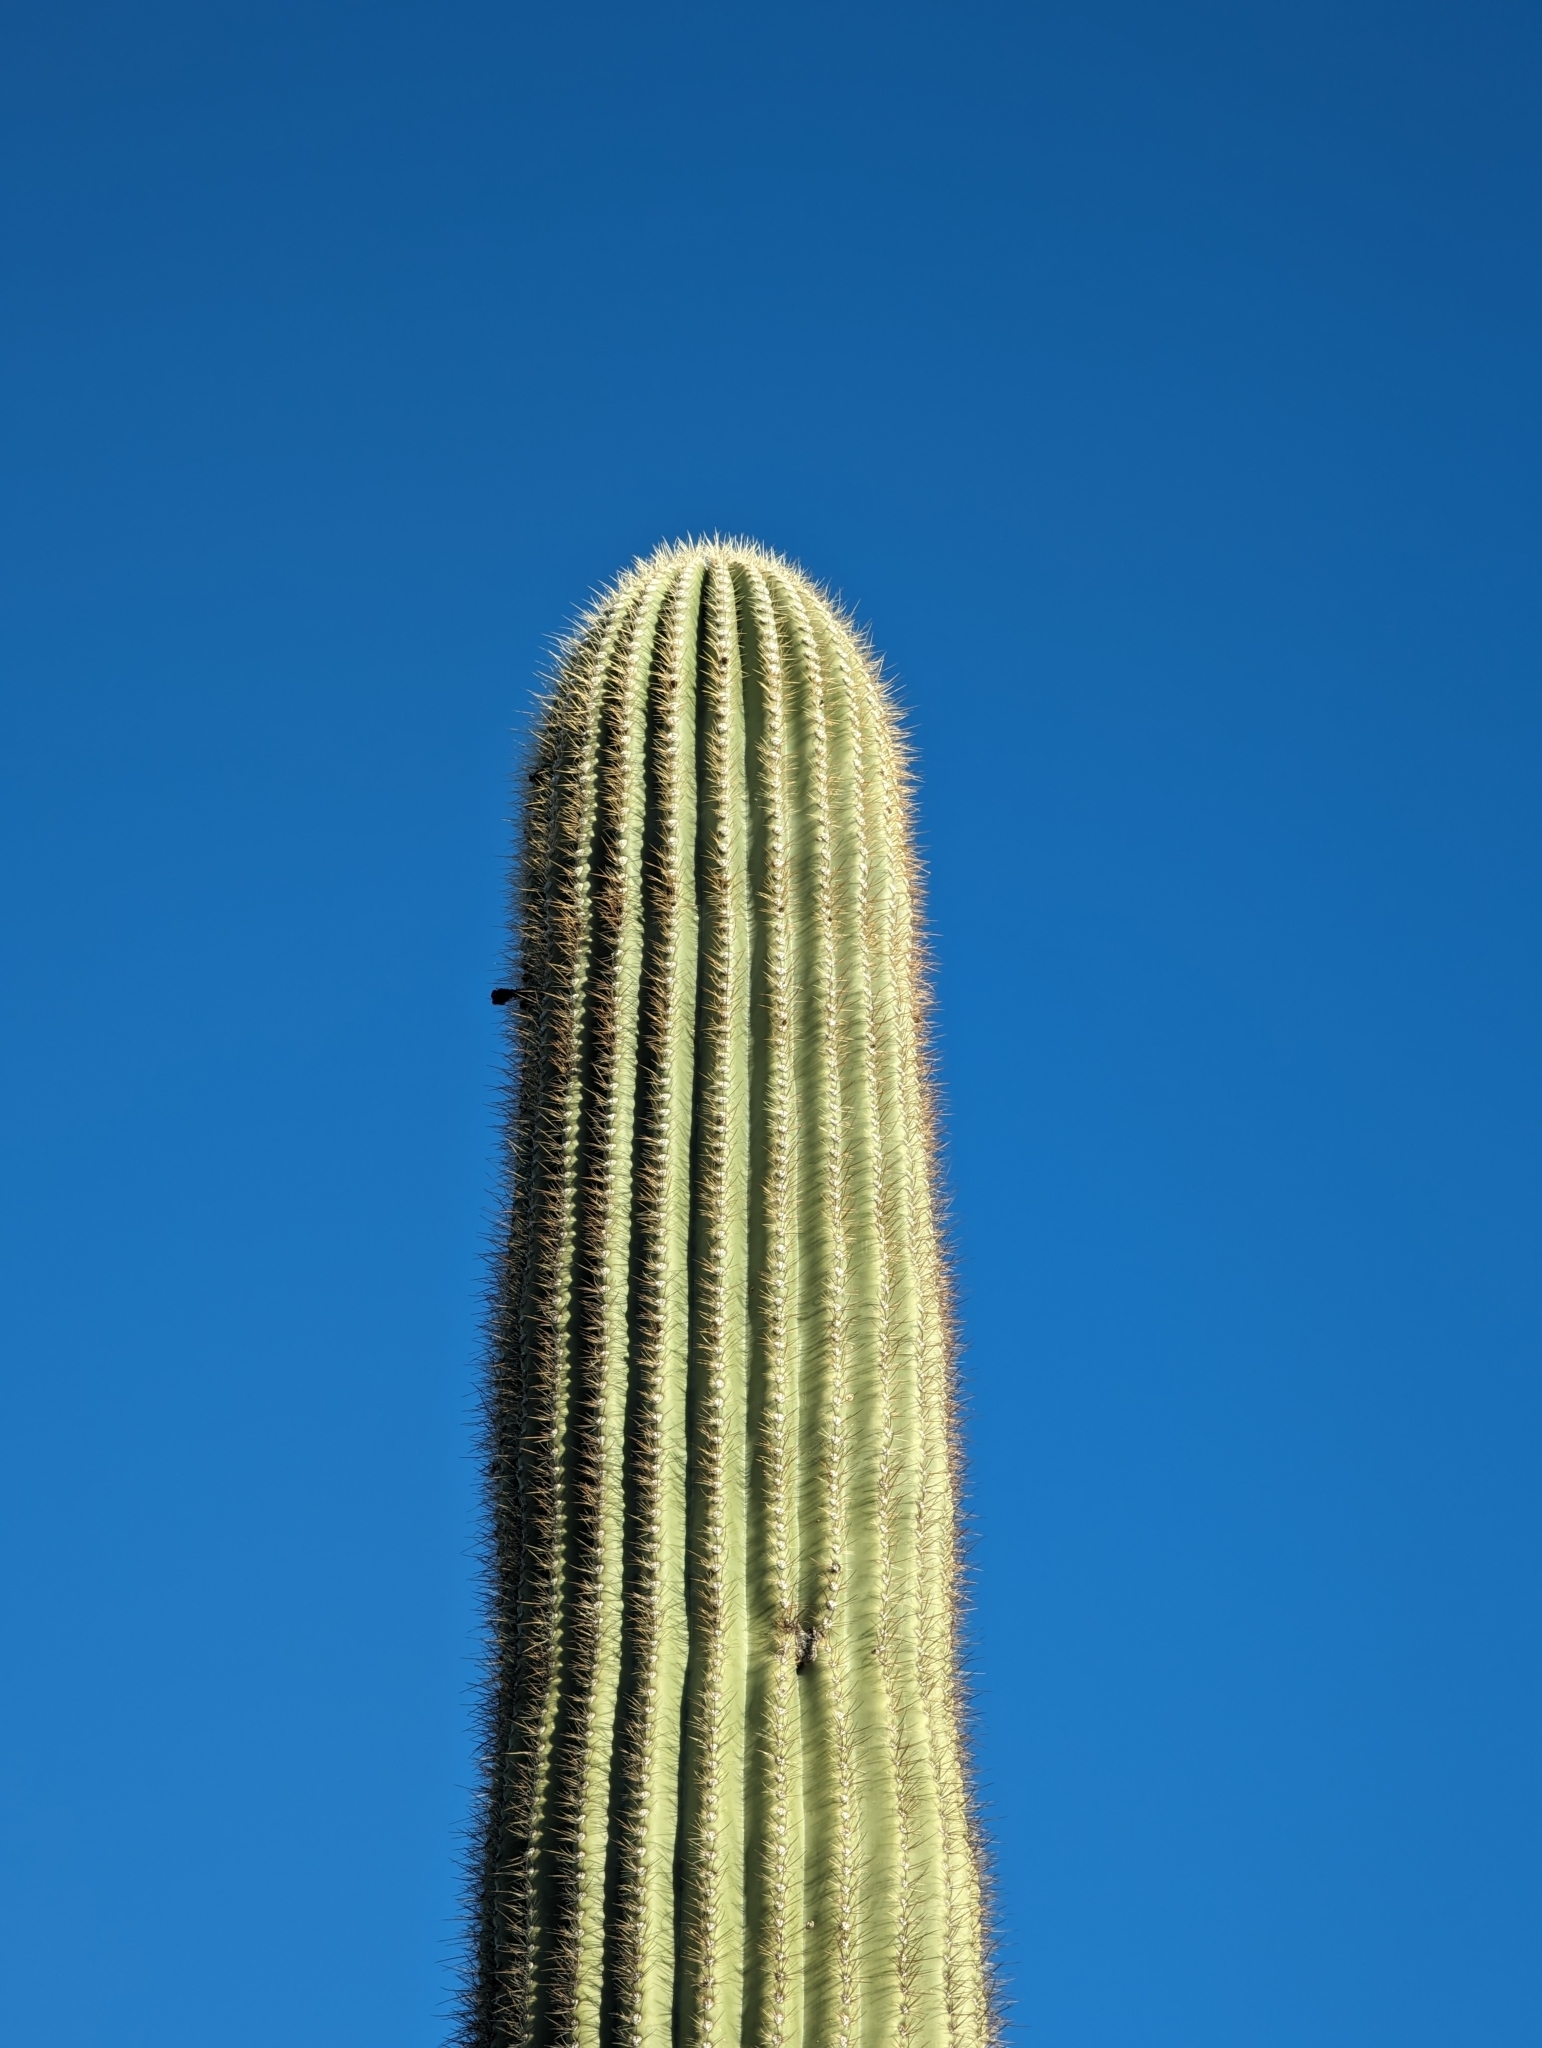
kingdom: Plantae
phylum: Tracheophyta
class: Magnoliopsida
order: Caryophyllales
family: Cactaceae
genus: Carnegiea
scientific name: Carnegiea gigantea
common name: Saguaro
